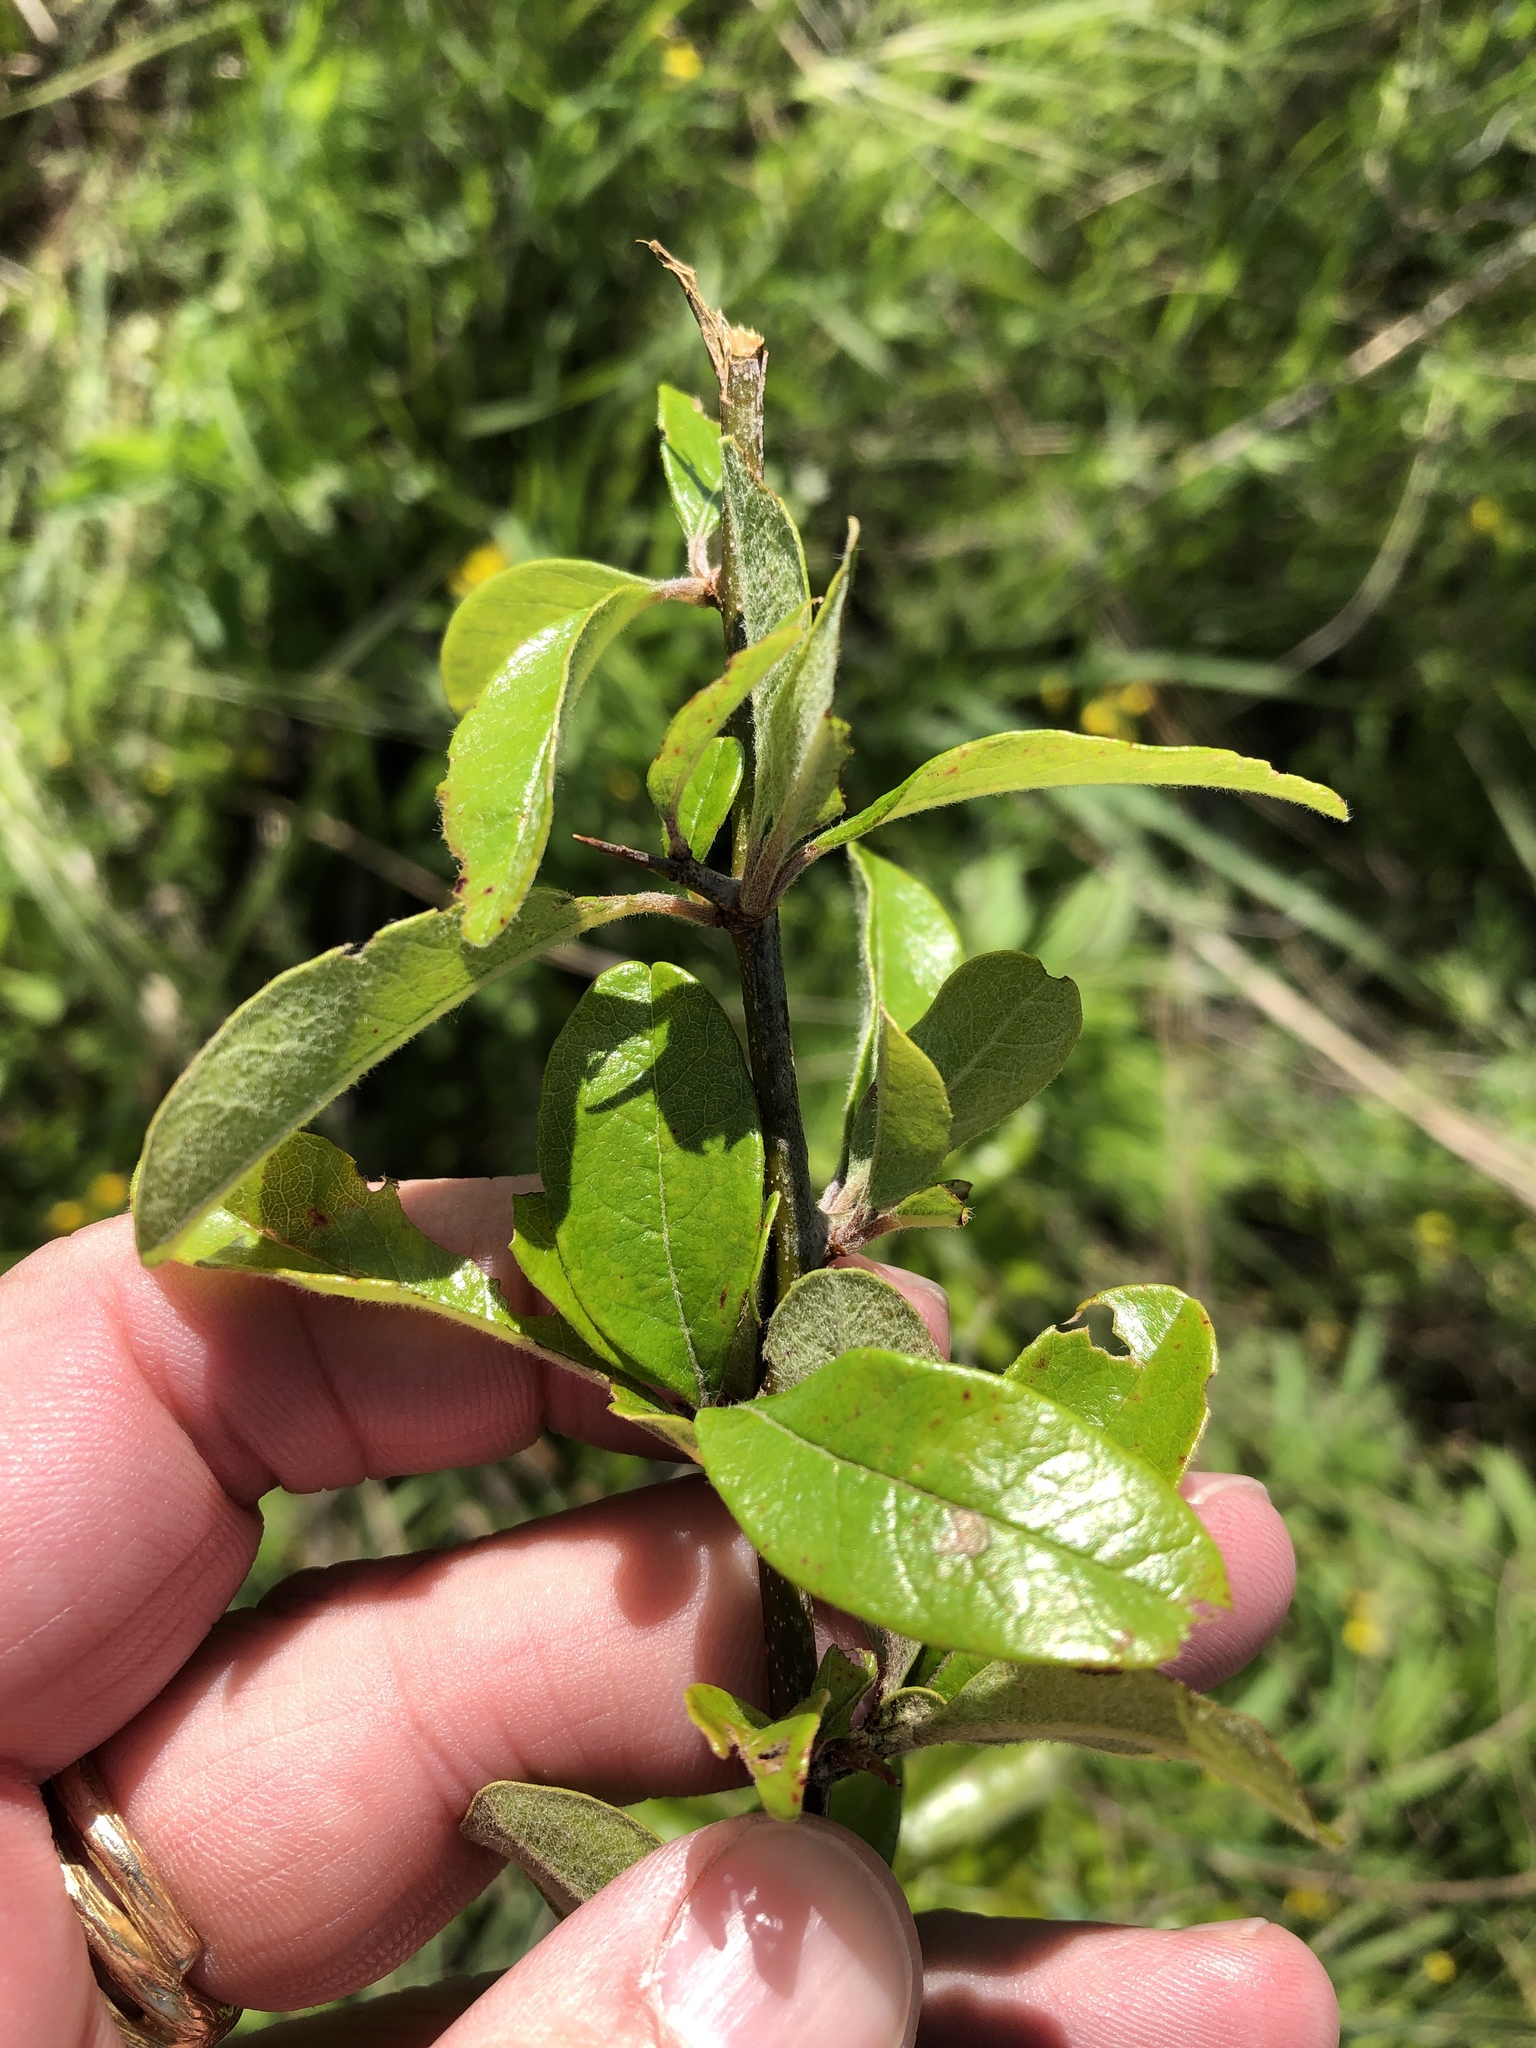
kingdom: Plantae
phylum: Tracheophyta
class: Magnoliopsida
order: Ericales
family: Sapotaceae
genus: Sideroxylon
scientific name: Sideroxylon lanuginosum
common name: Chittamwood
